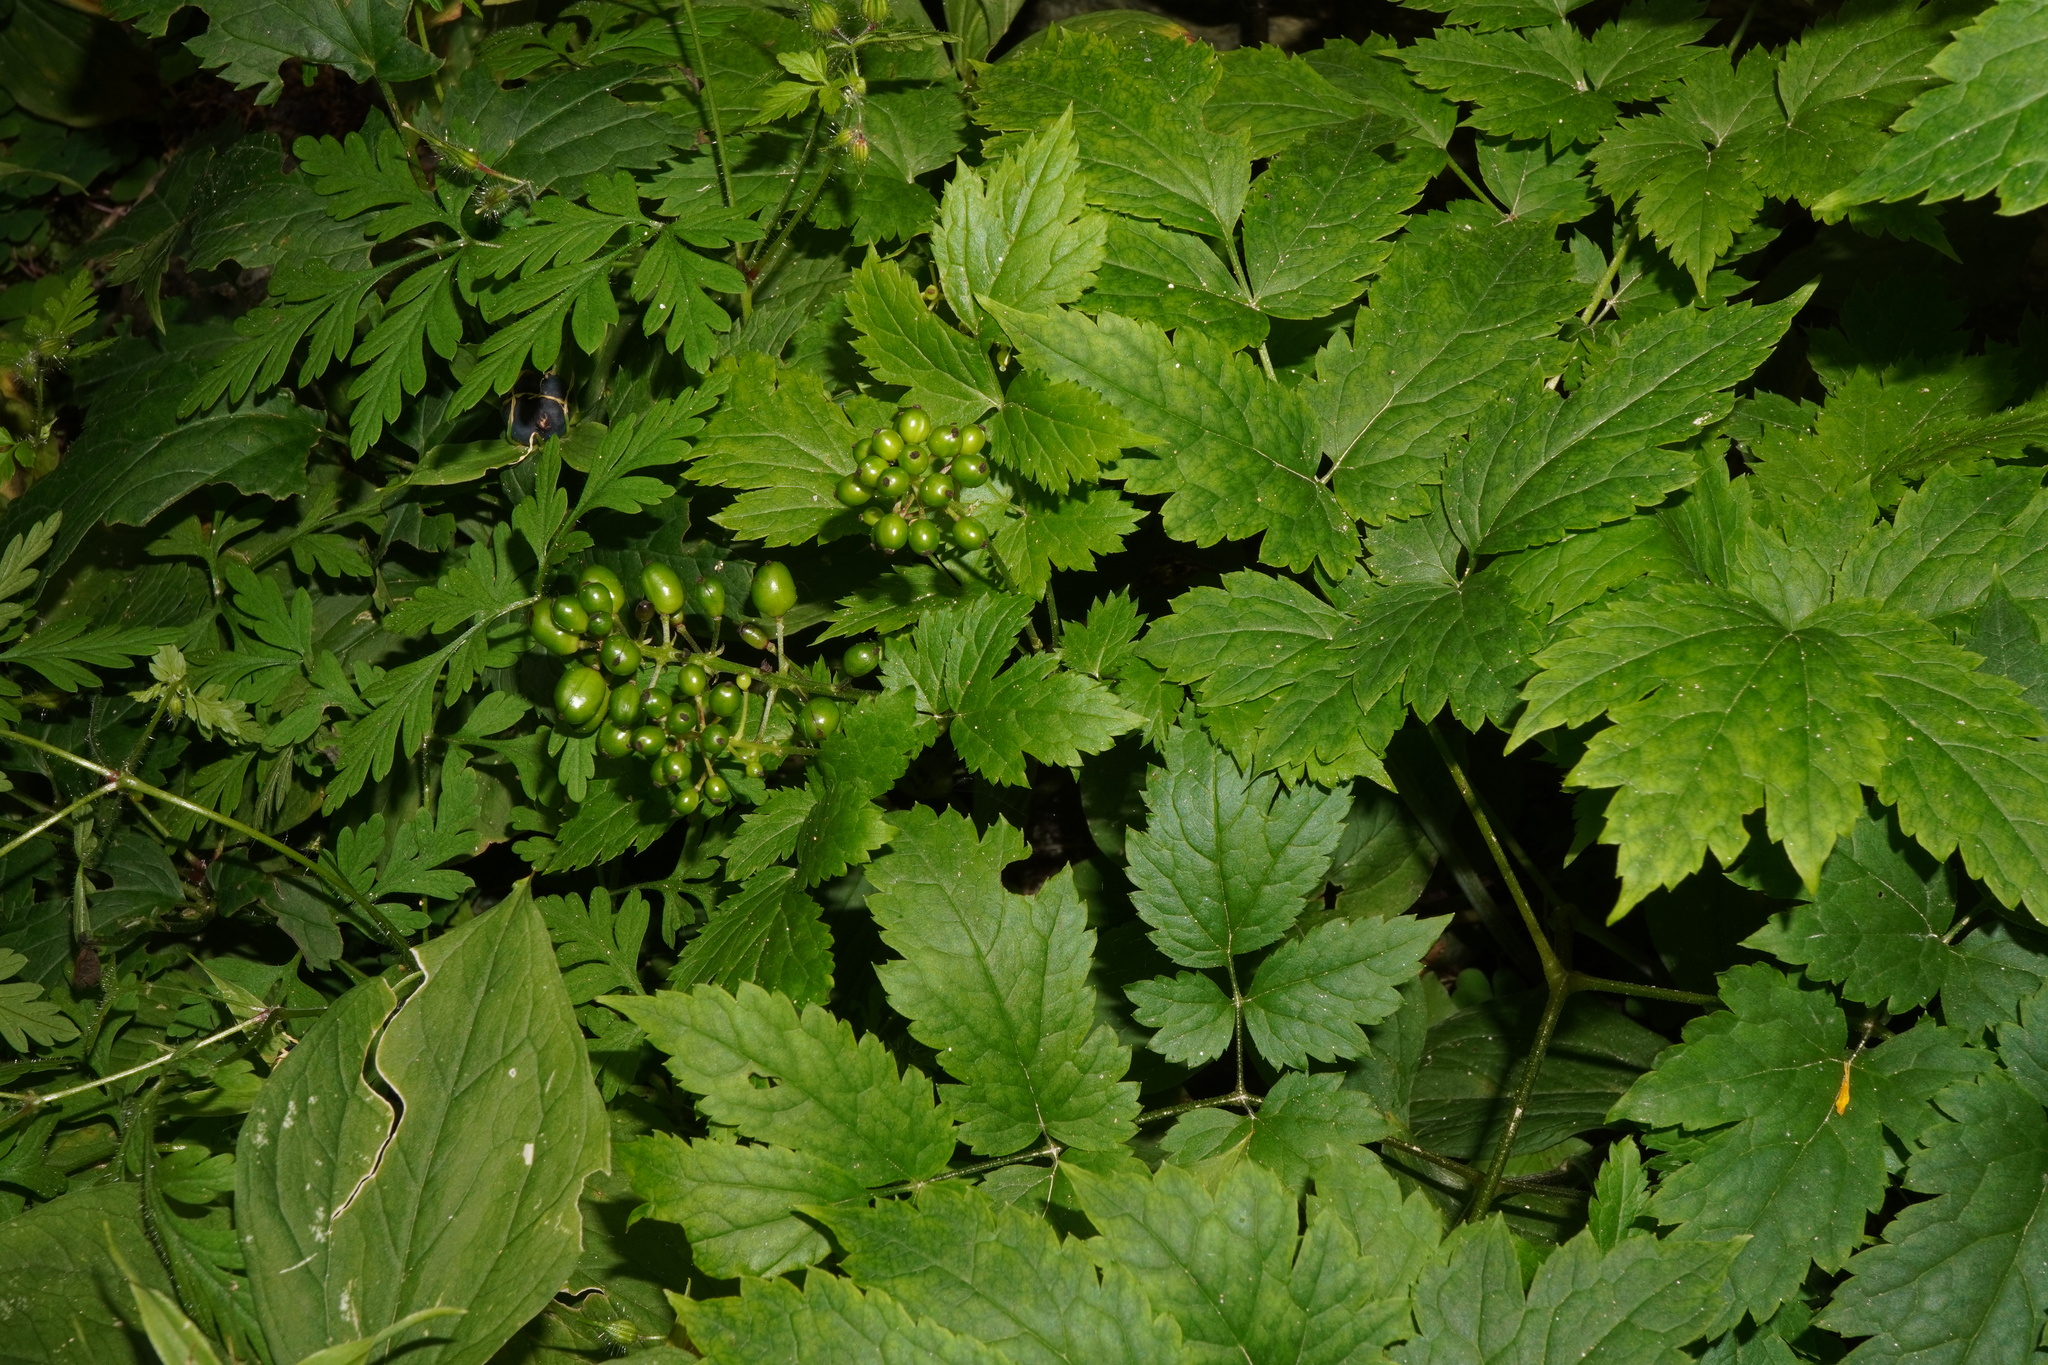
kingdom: Plantae
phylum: Tracheophyta
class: Magnoliopsida
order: Ranunculales
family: Ranunculaceae
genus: Actaea
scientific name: Actaea spicata
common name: Baneberry
